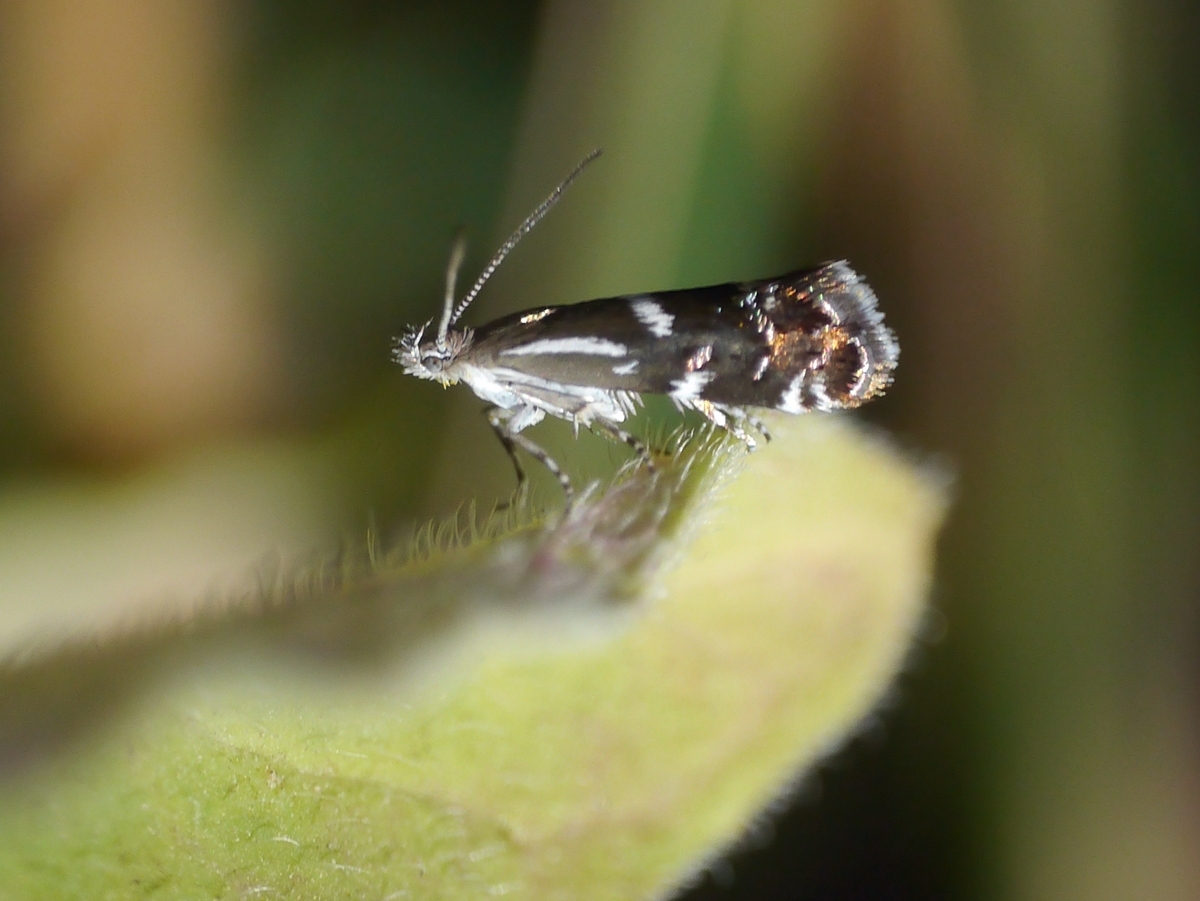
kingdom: Animalia
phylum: Arthropoda
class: Insecta
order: Lepidoptera
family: Choreutidae
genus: Millieria
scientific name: Millieria dolosalis
